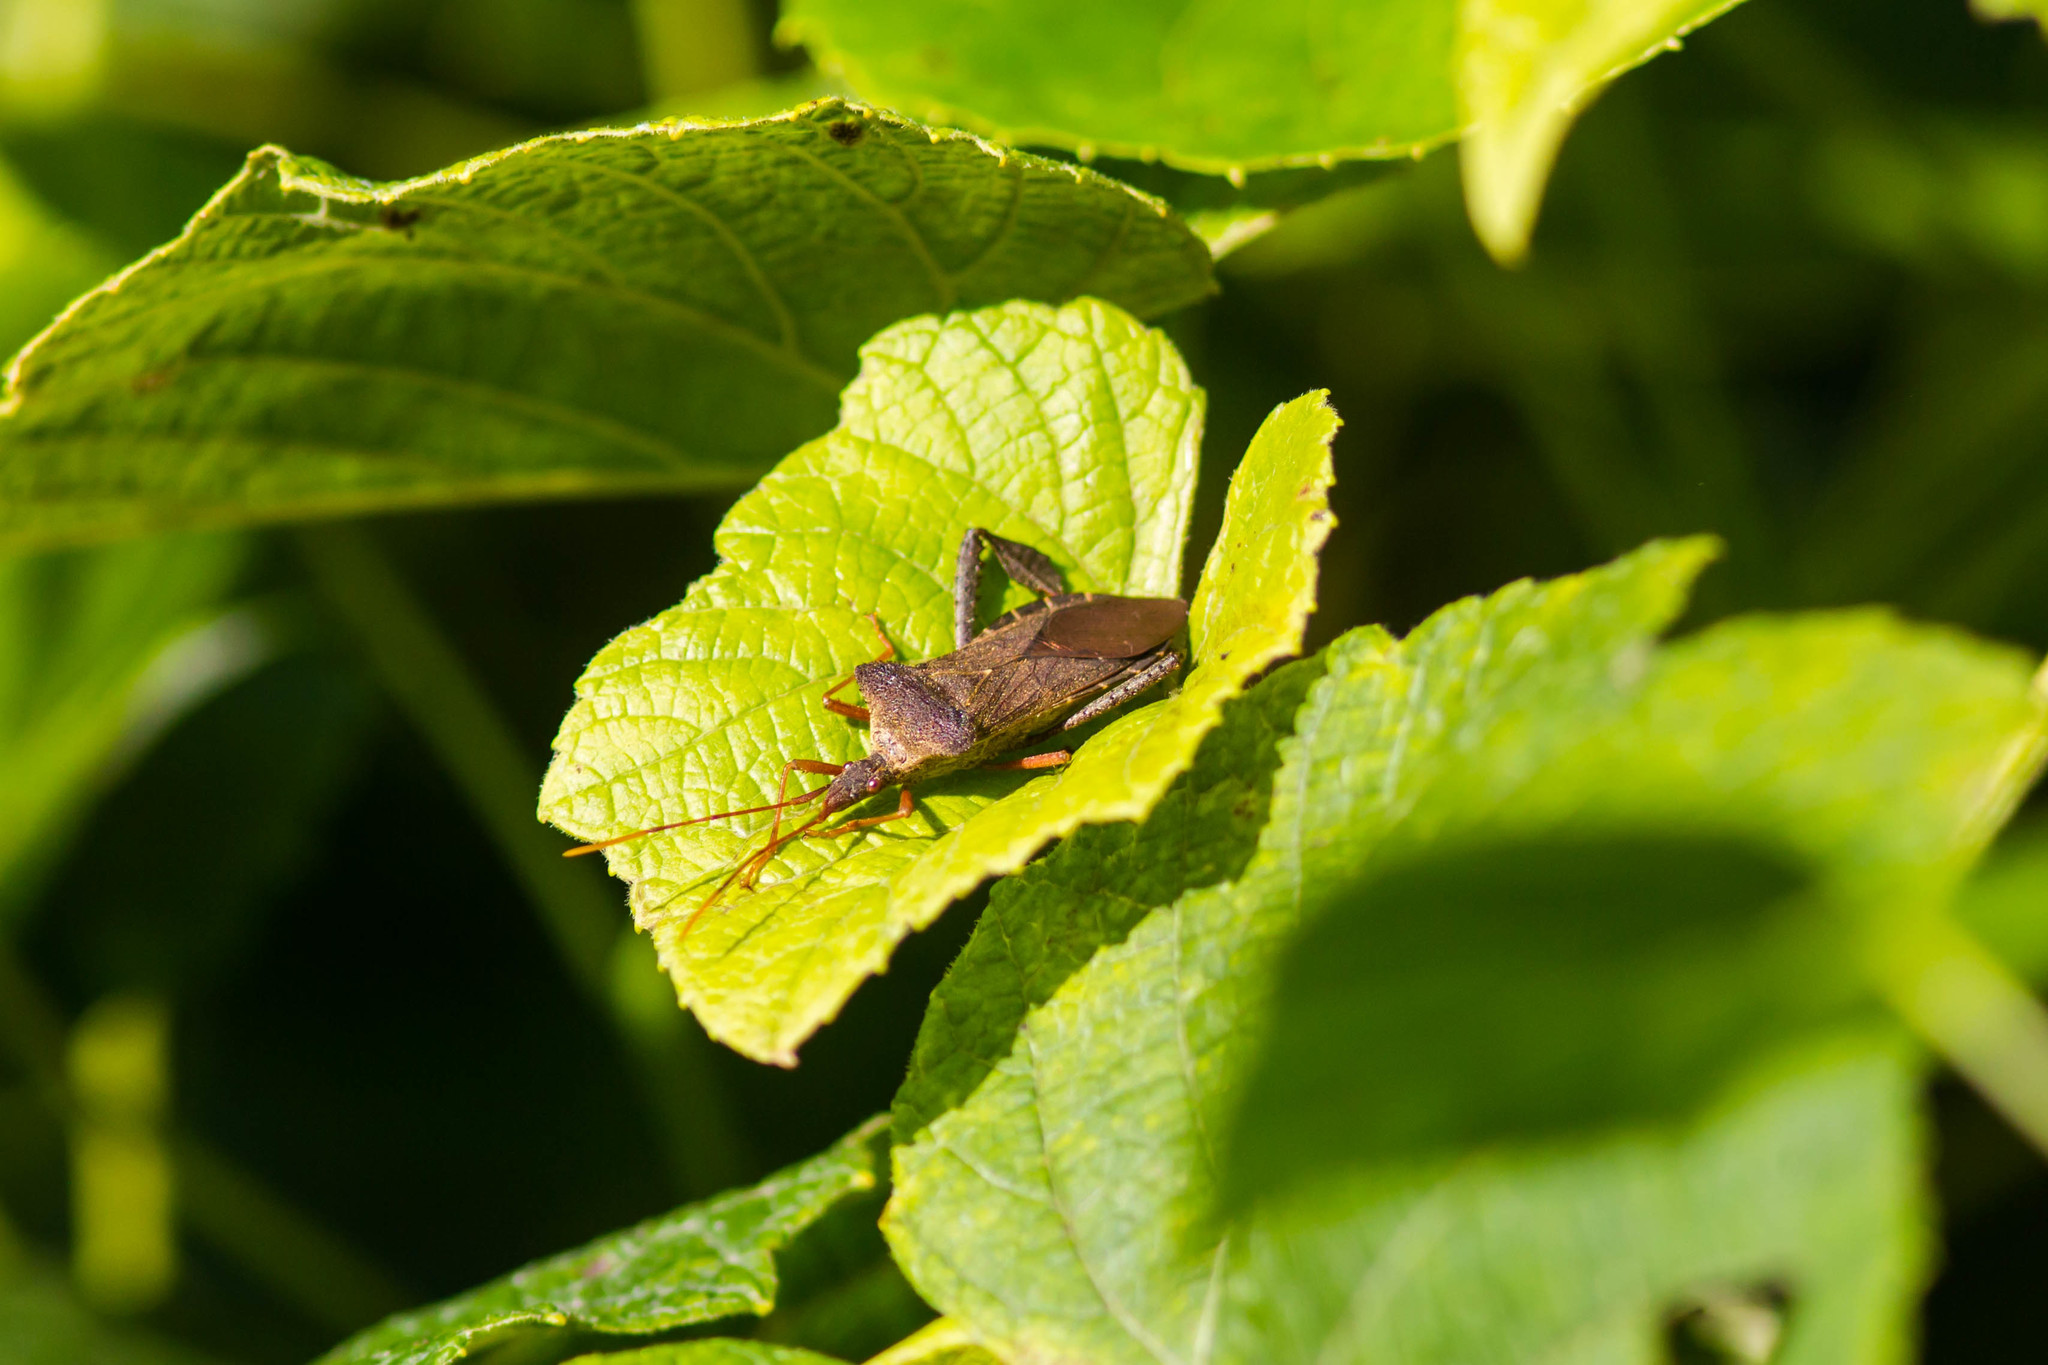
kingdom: Animalia
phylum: Arthropoda
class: Insecta
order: Hemiptera
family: Coreidae
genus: Leptoglossus
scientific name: Leptoglossus fulvicornis
